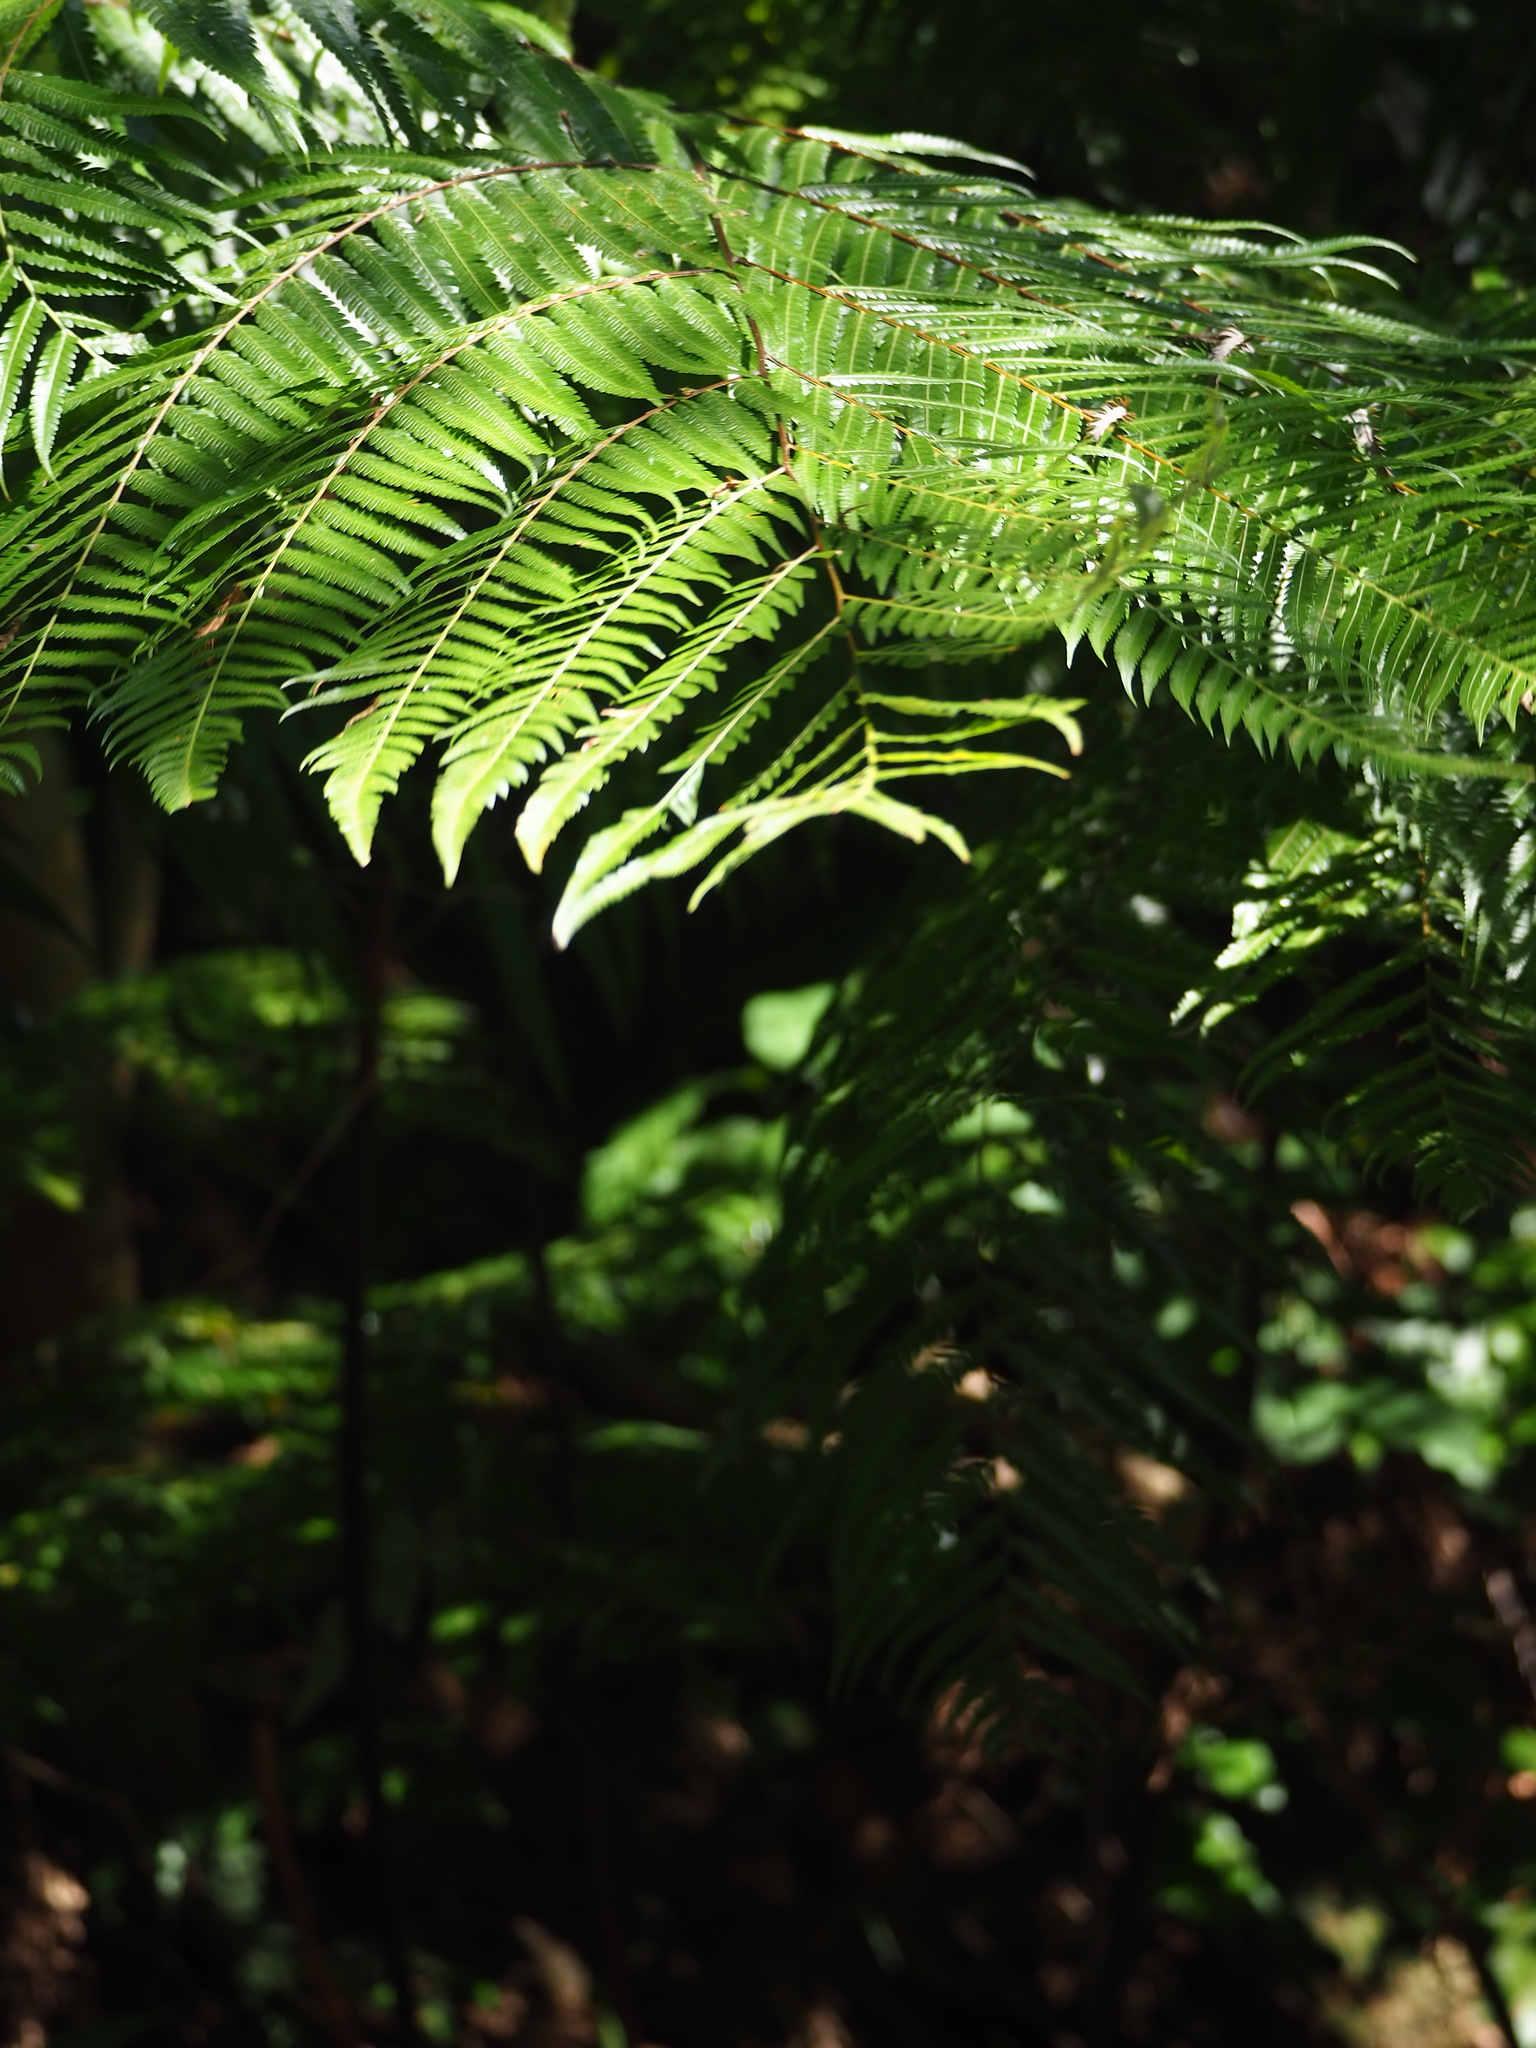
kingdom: Plantae
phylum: Tracheophyta
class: Polypodiopsida
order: Cyatheales
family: Cibotiaceae
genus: Cibotium
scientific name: Cibotium taiwanense
